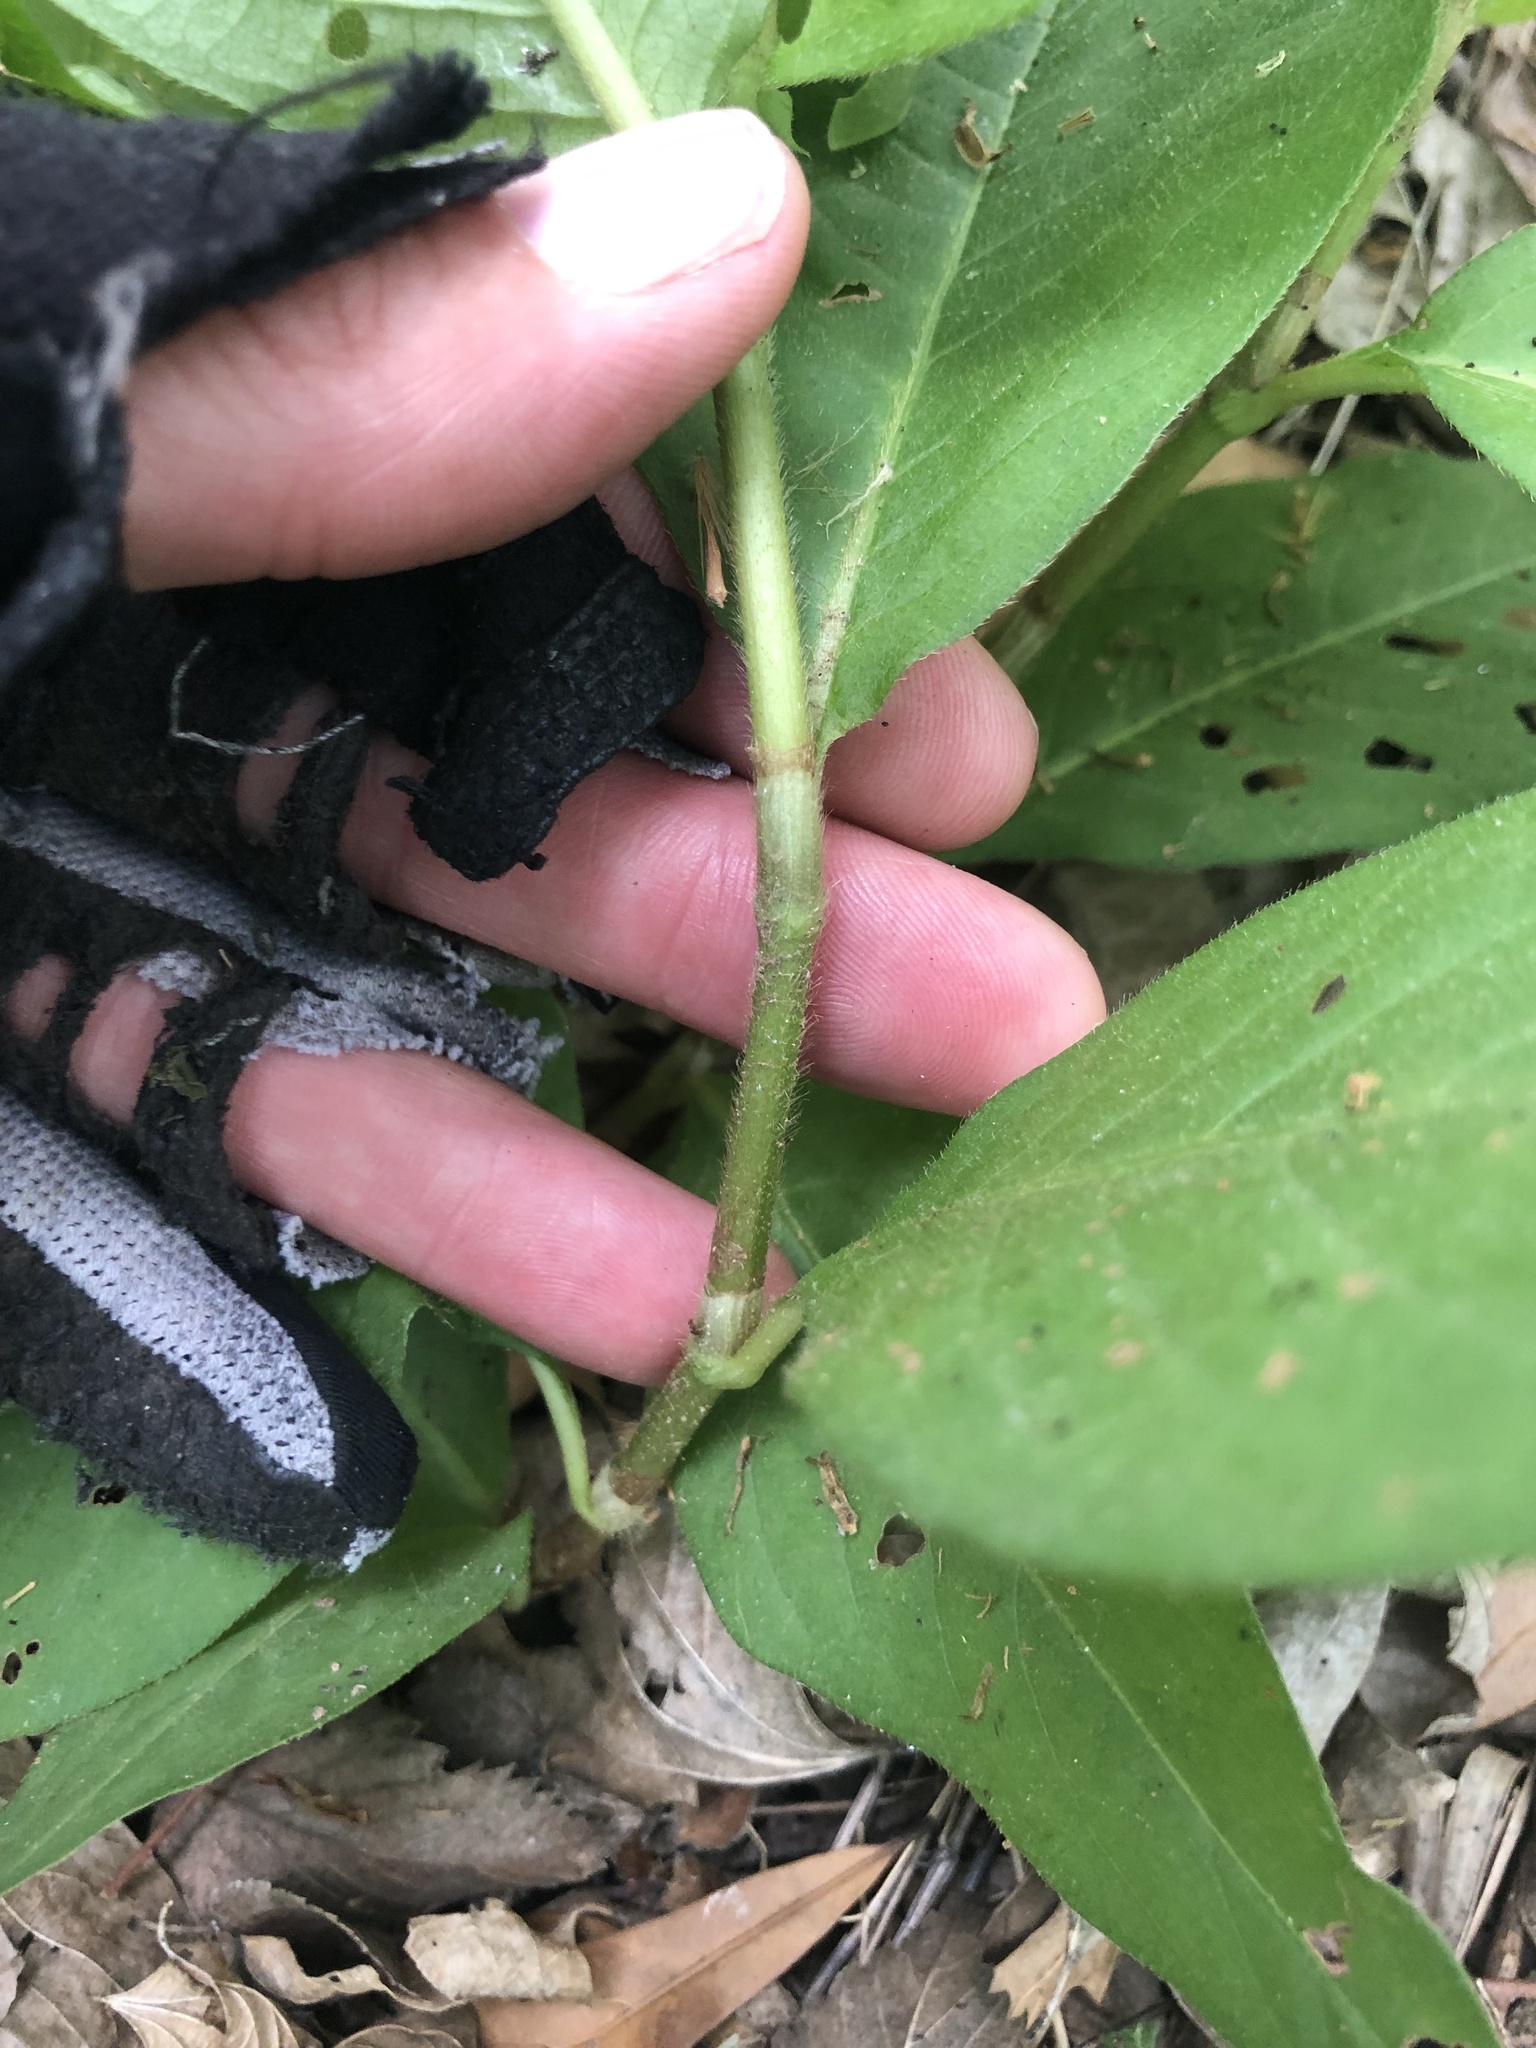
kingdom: Plantae
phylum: Tracheophyta
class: Magnoliopsida
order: Caryophyllales
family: Polygonaceae
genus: Persicaria
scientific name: Persicaria virginiana
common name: Jumpseed
